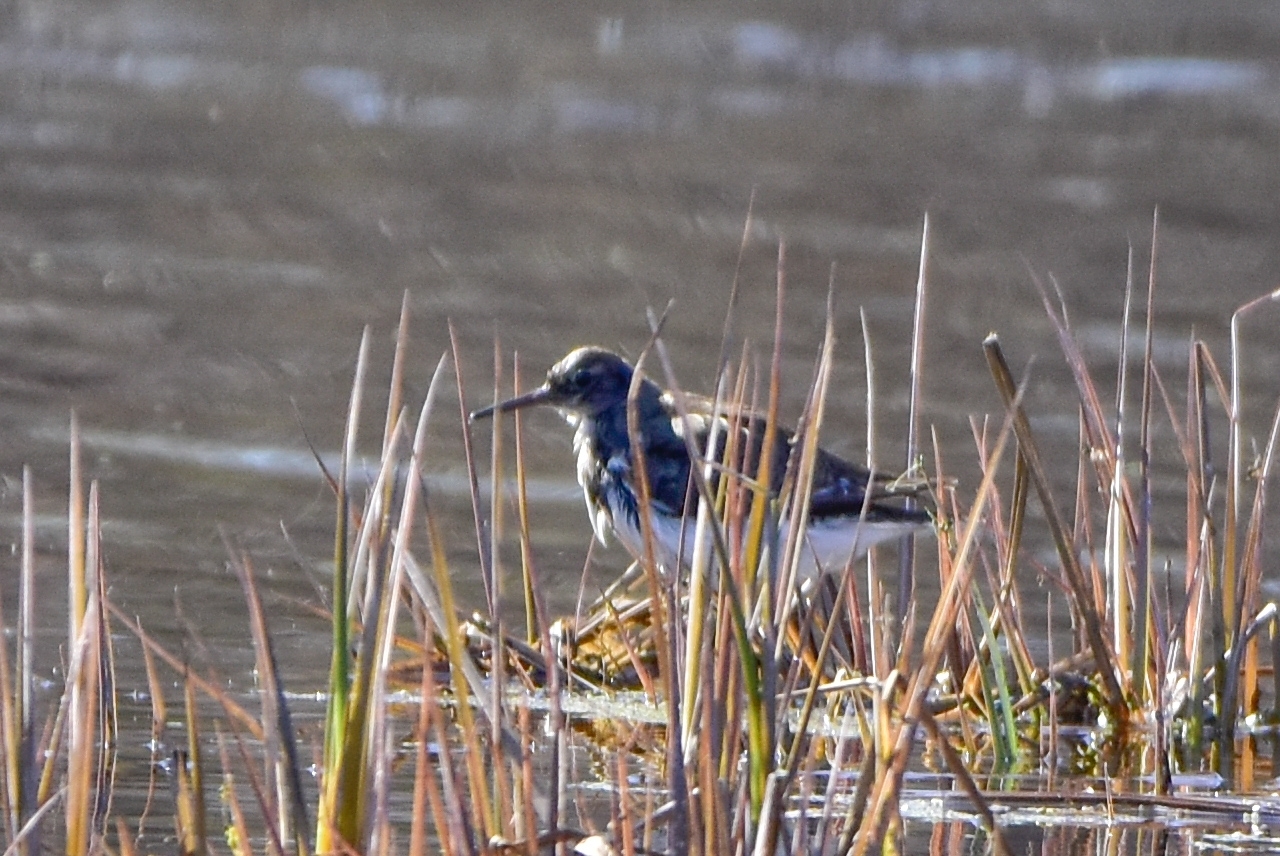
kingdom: Animalia
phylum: Chordata
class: Aves
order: Charadriiformes
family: Scolopacidae
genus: Actitis
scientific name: Actitis hypoleucos
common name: Common sandpiper
